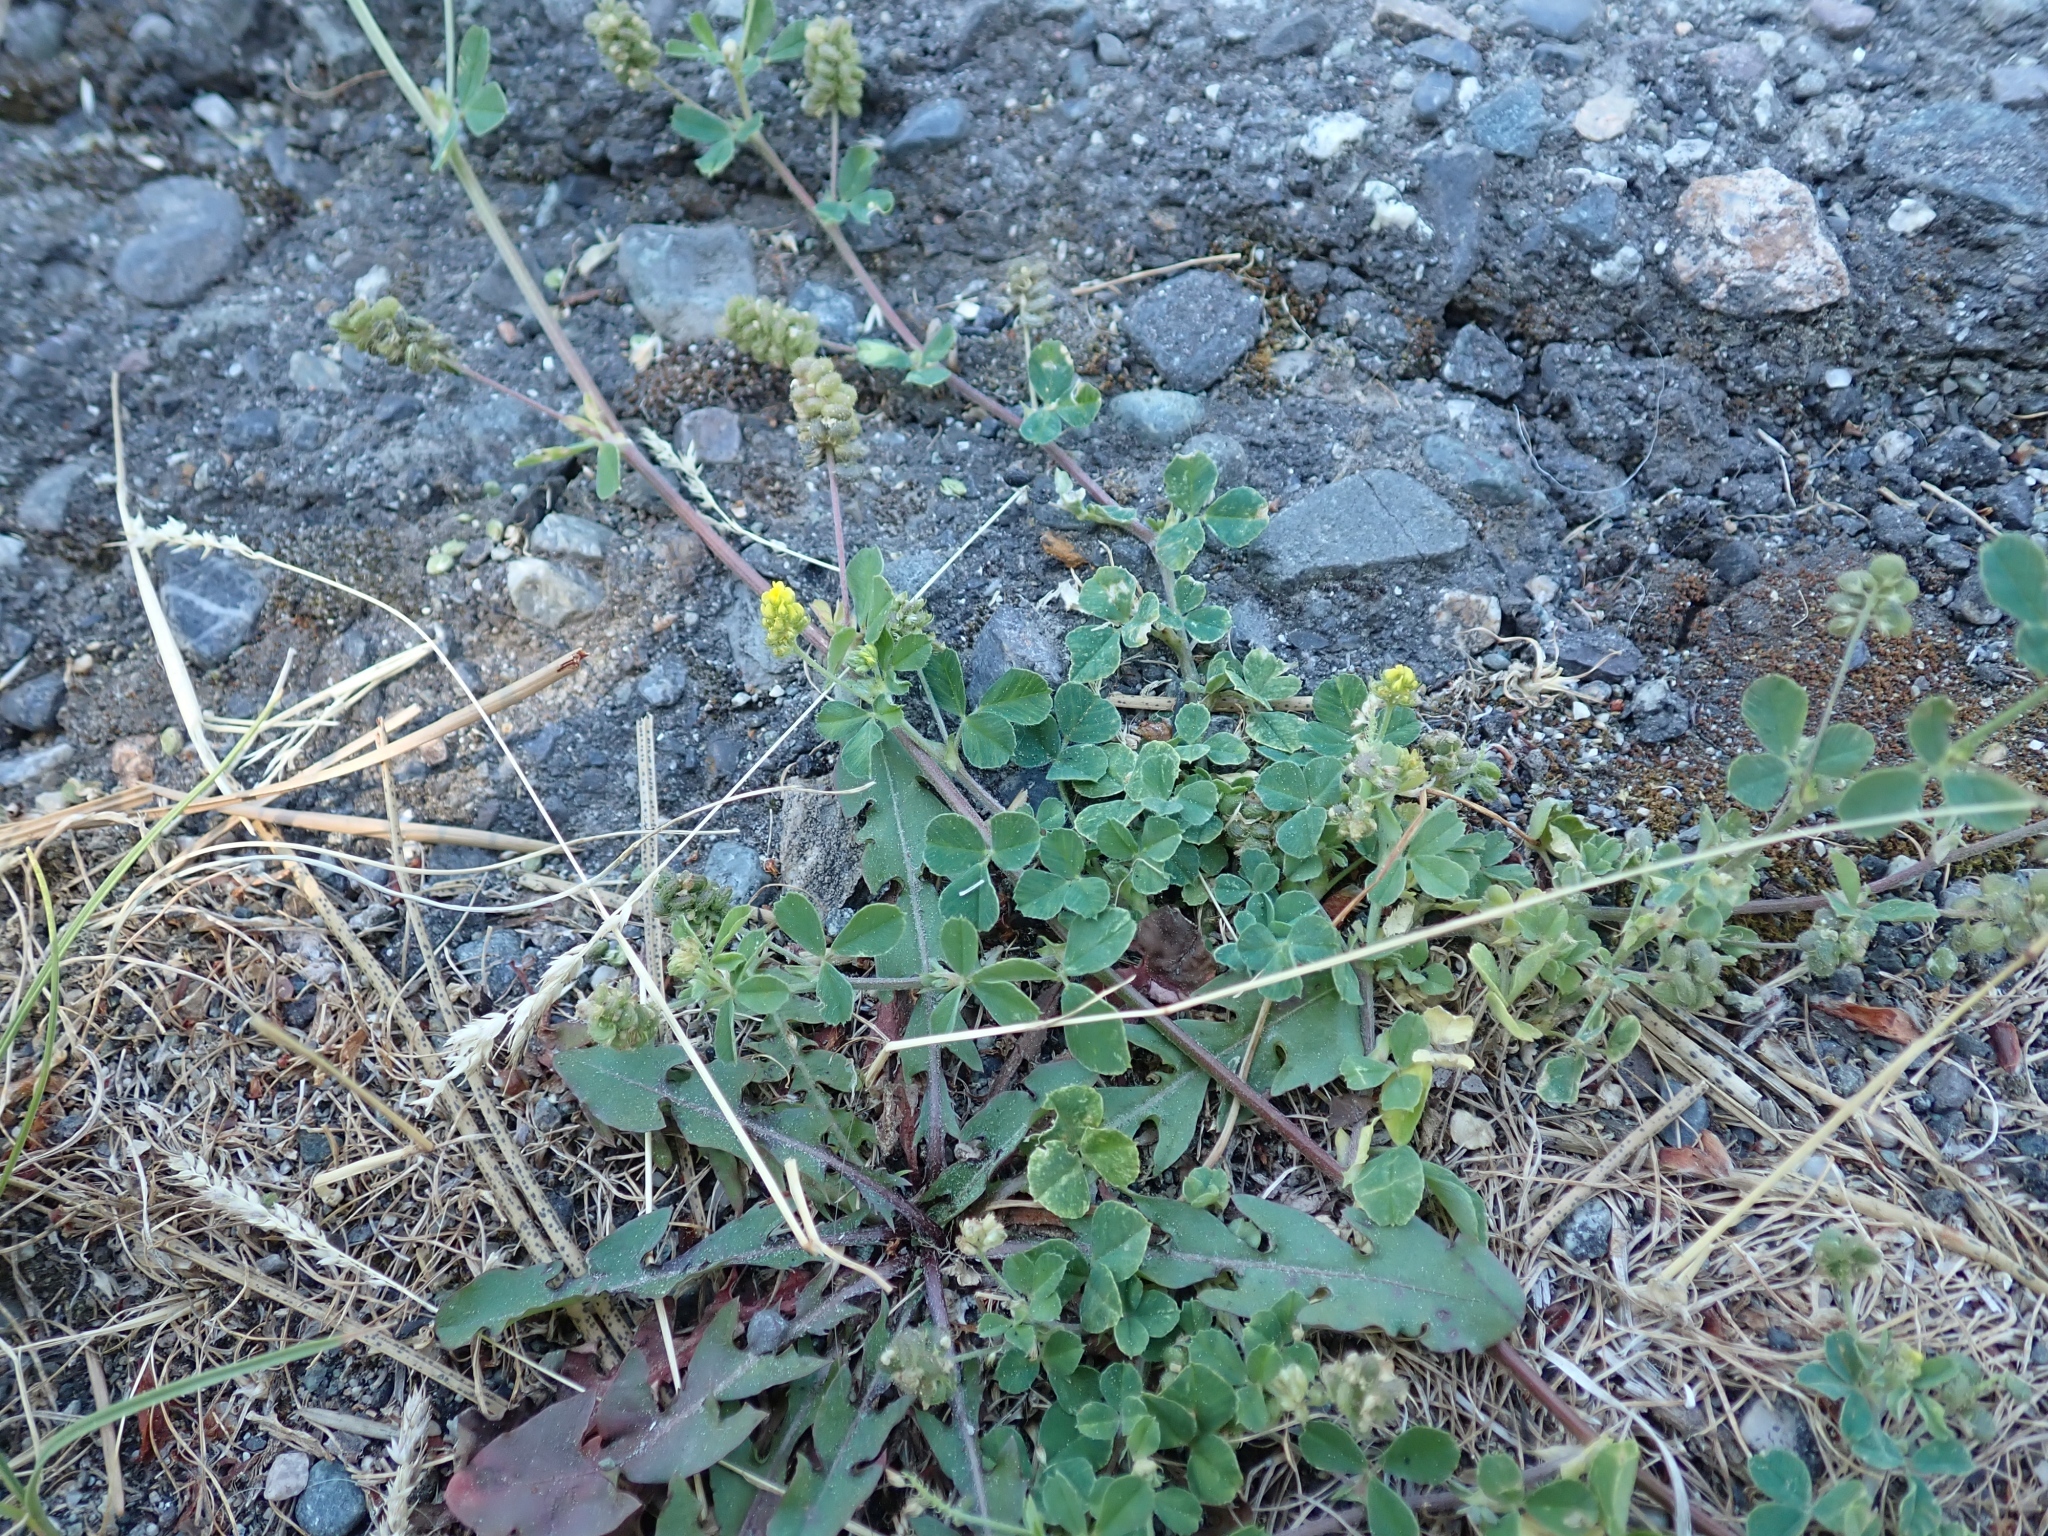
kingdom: Plantae
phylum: Tracheophyta
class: Magnoliopsida
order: Fabales
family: Fabaceae
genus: Medicago
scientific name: Medicago lupulina
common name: Black medick
